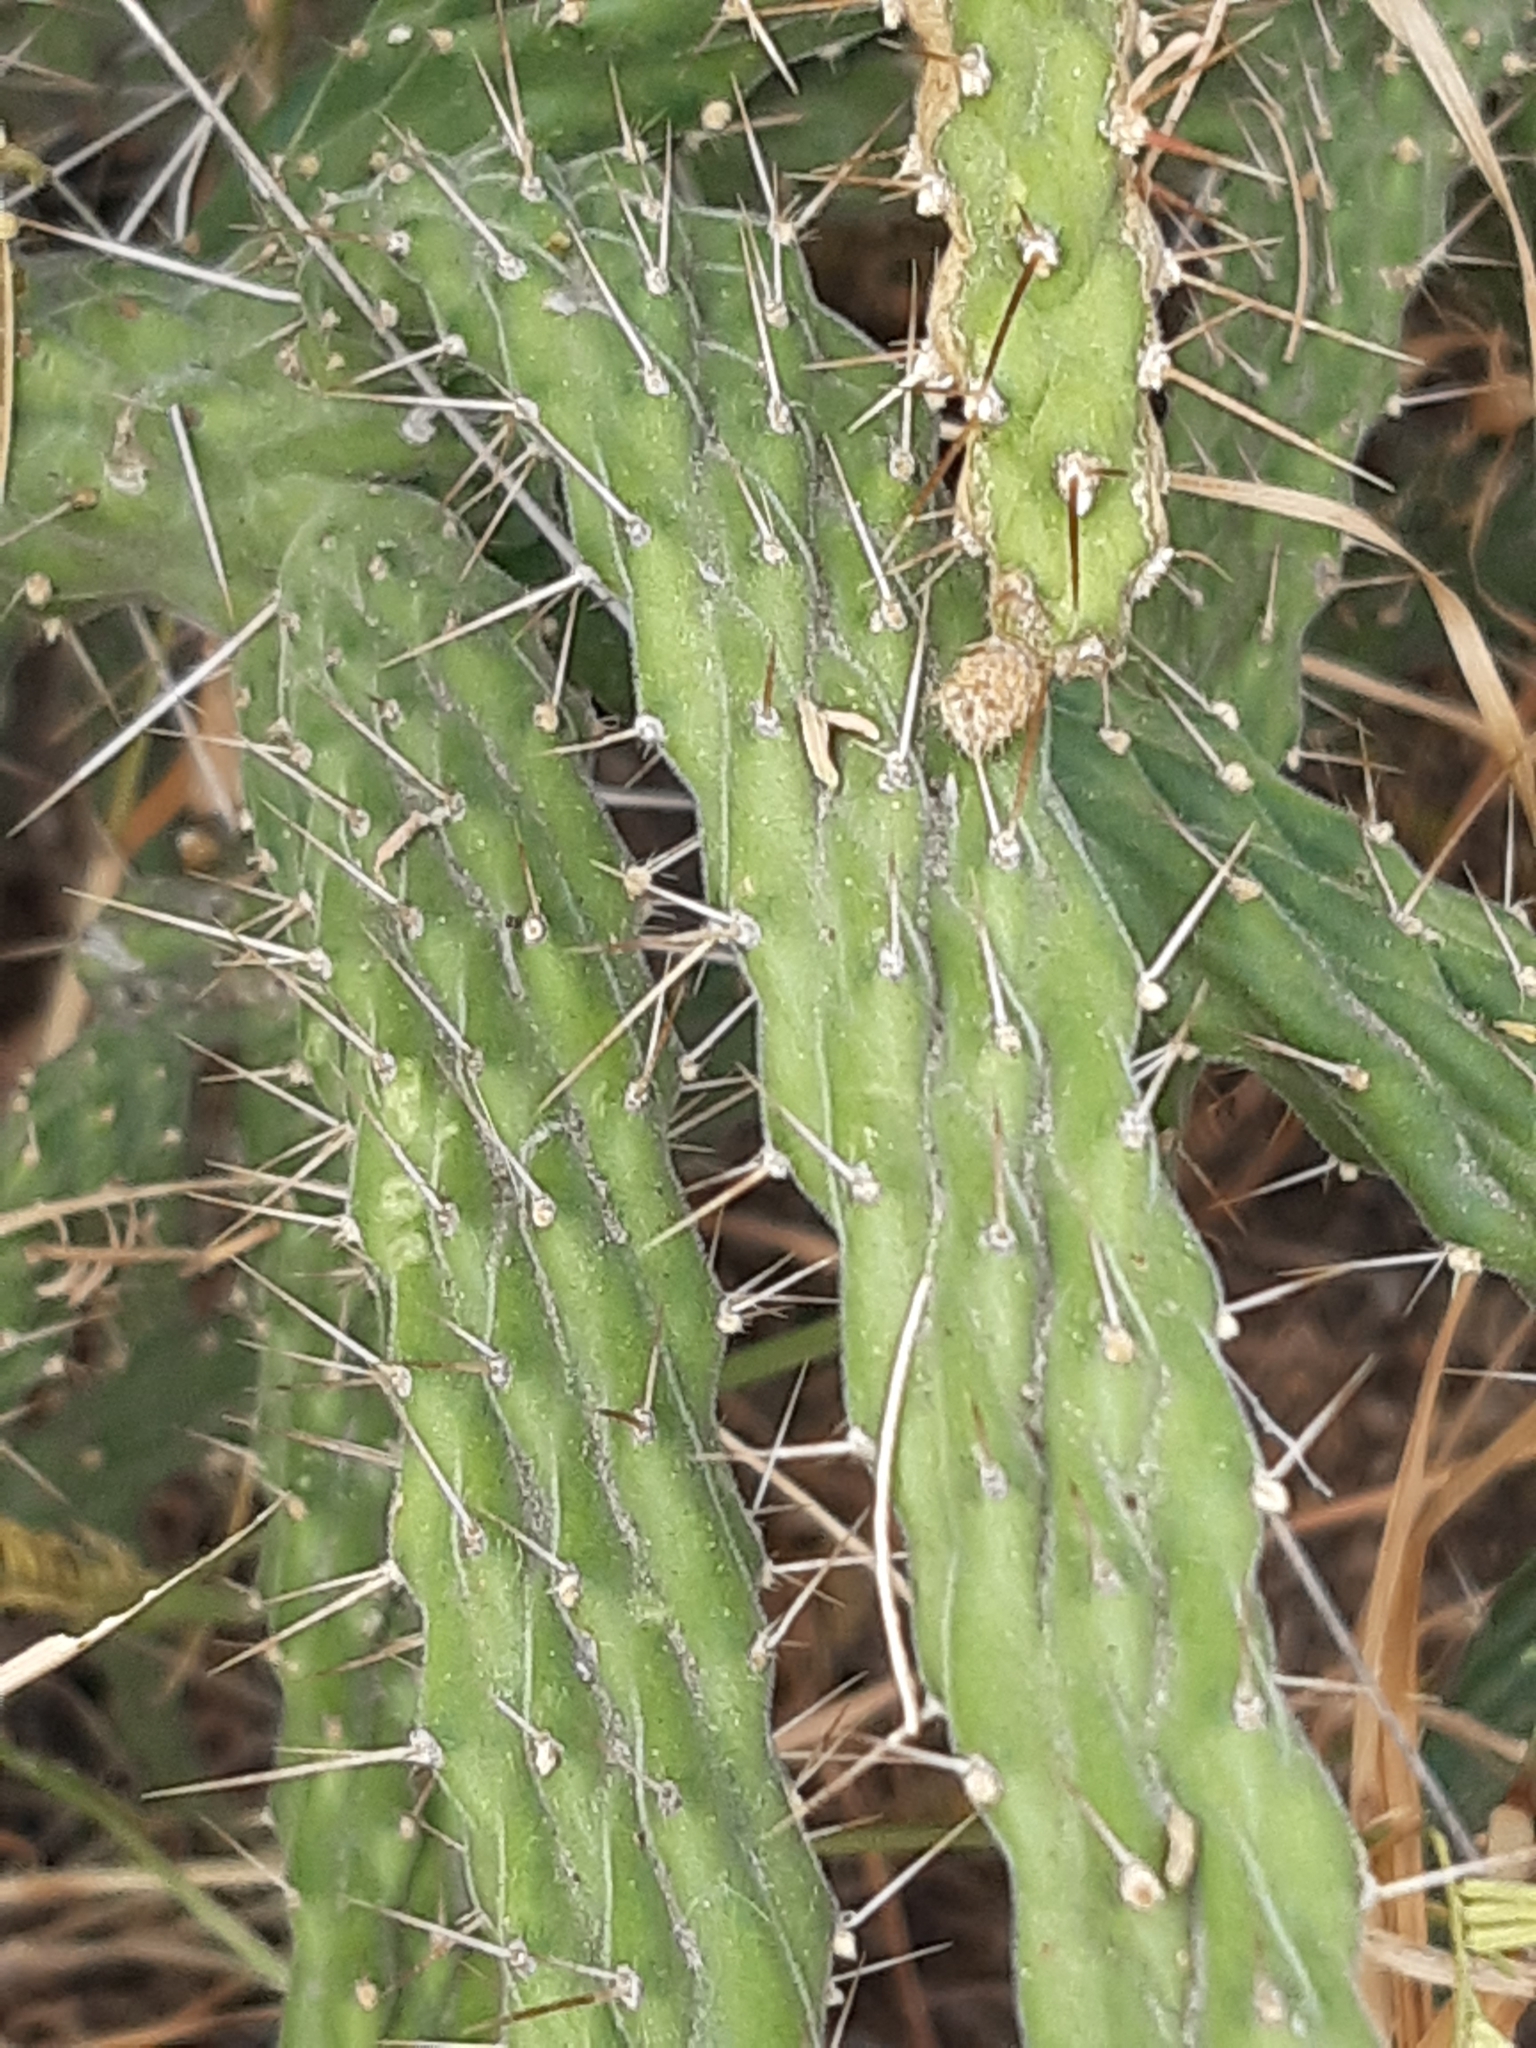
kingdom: Plantae
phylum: Tracheophyta
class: Magnoliopsida
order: Caryophyllales
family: Cactaceae
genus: Opuntia
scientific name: Opuntia pubescens
